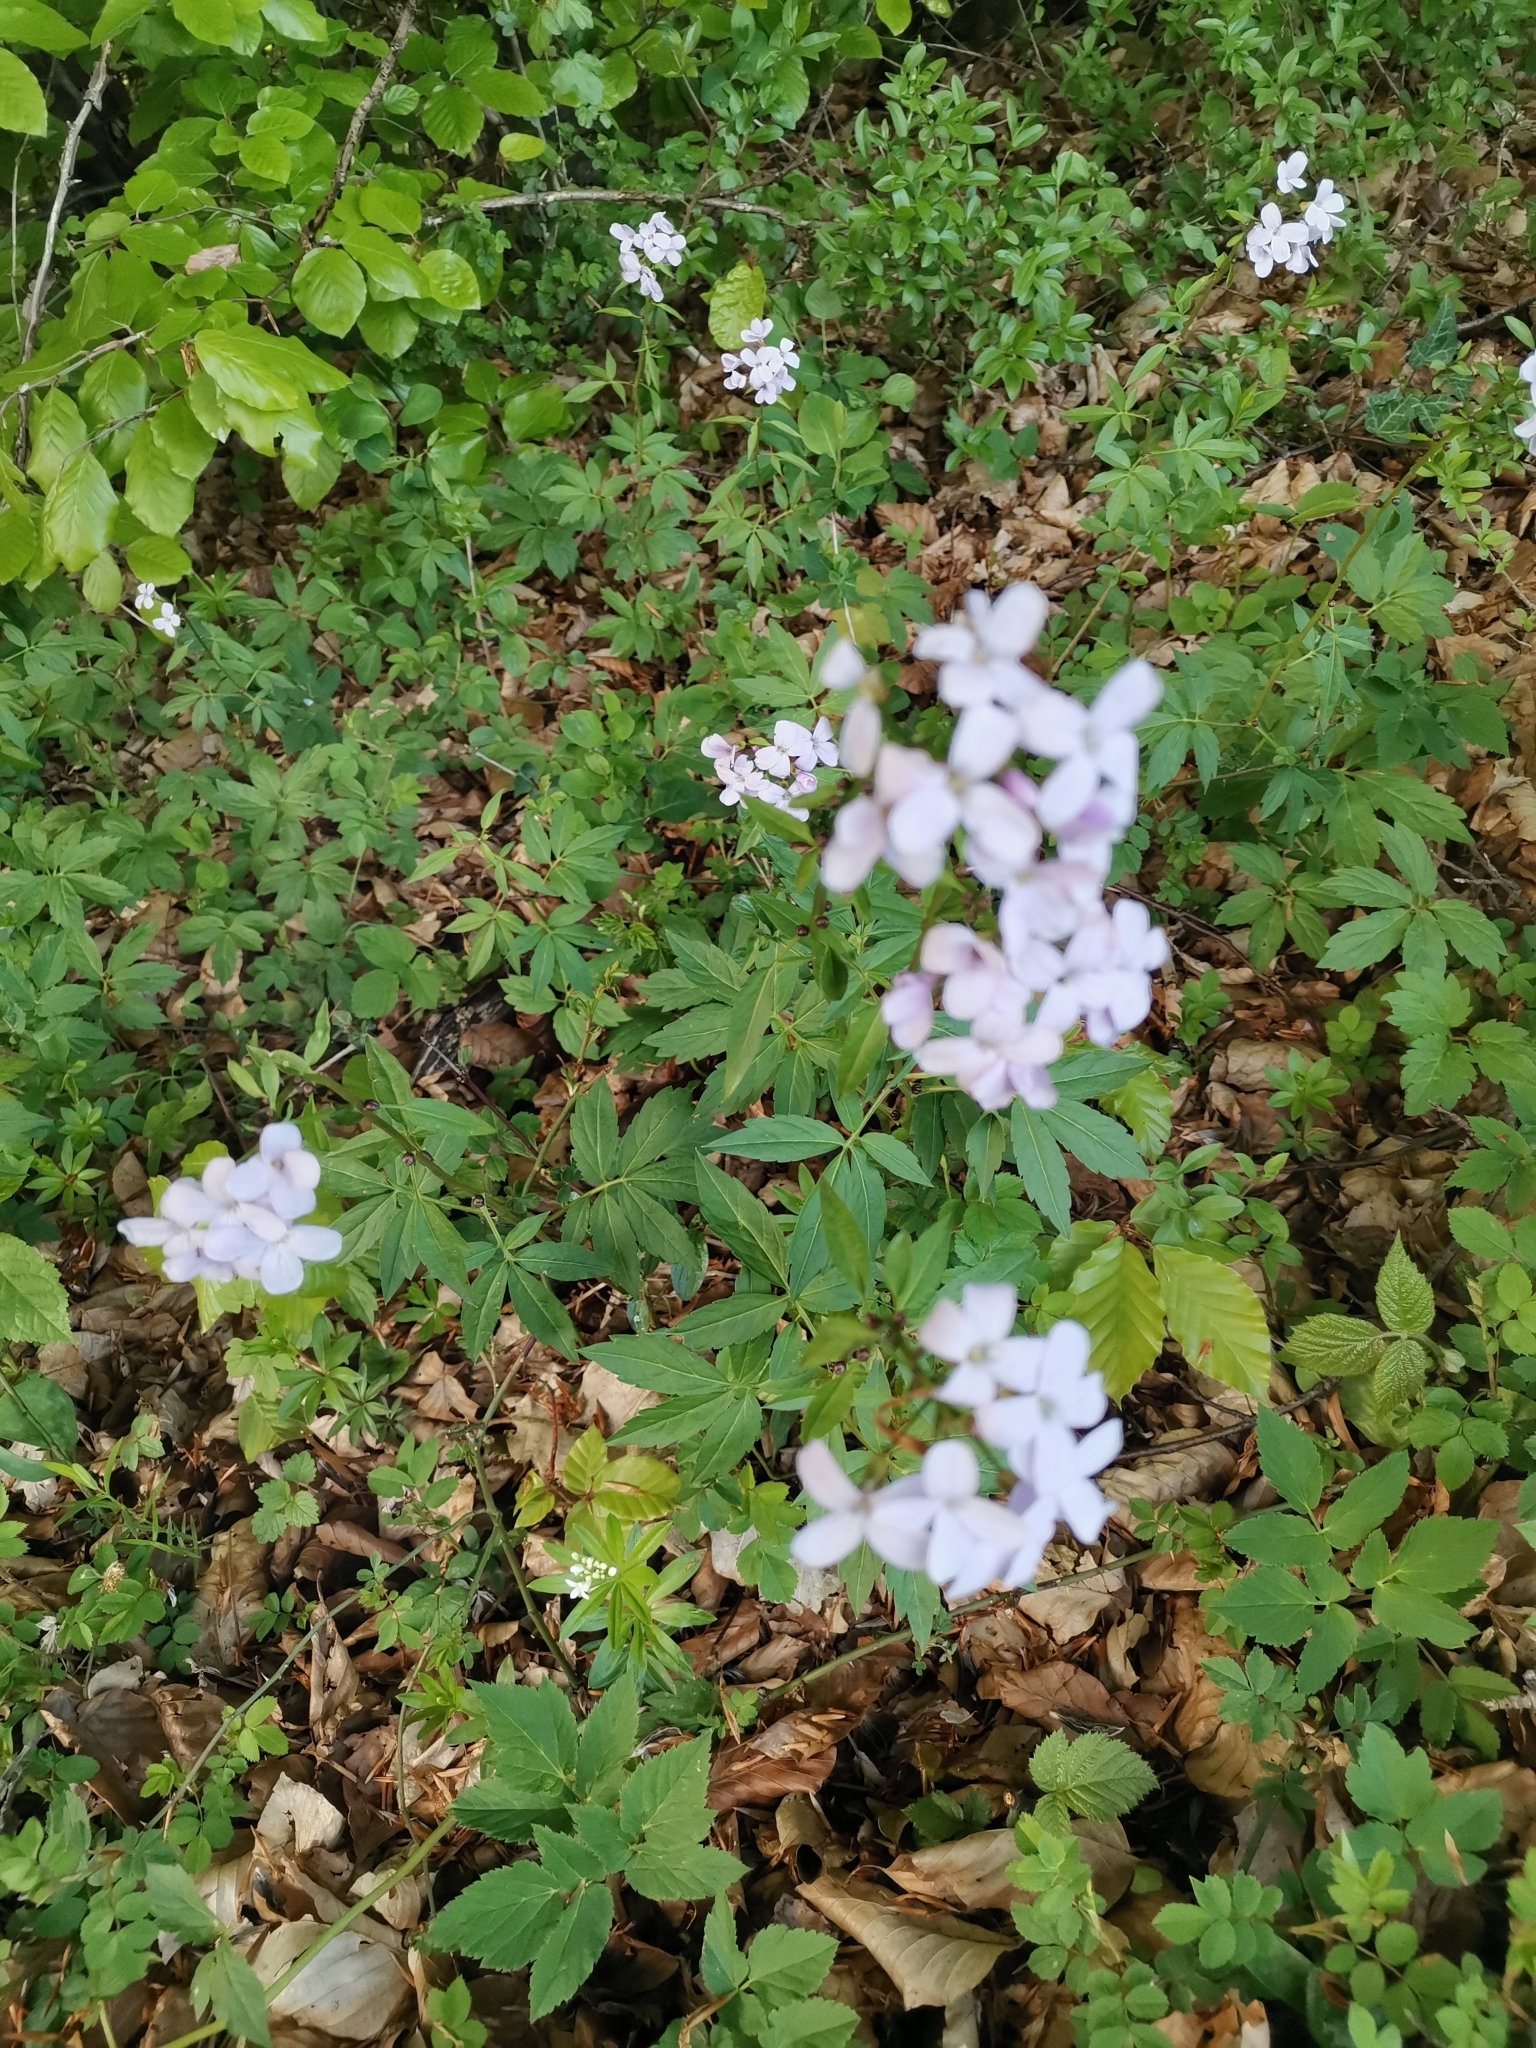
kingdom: Plantae
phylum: Tracheophyta
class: Magnoliopsida
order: Brassicales
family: Brassicaceae
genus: Cardamine
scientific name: Cardamine bulbifera
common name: Coralroot bittercress
